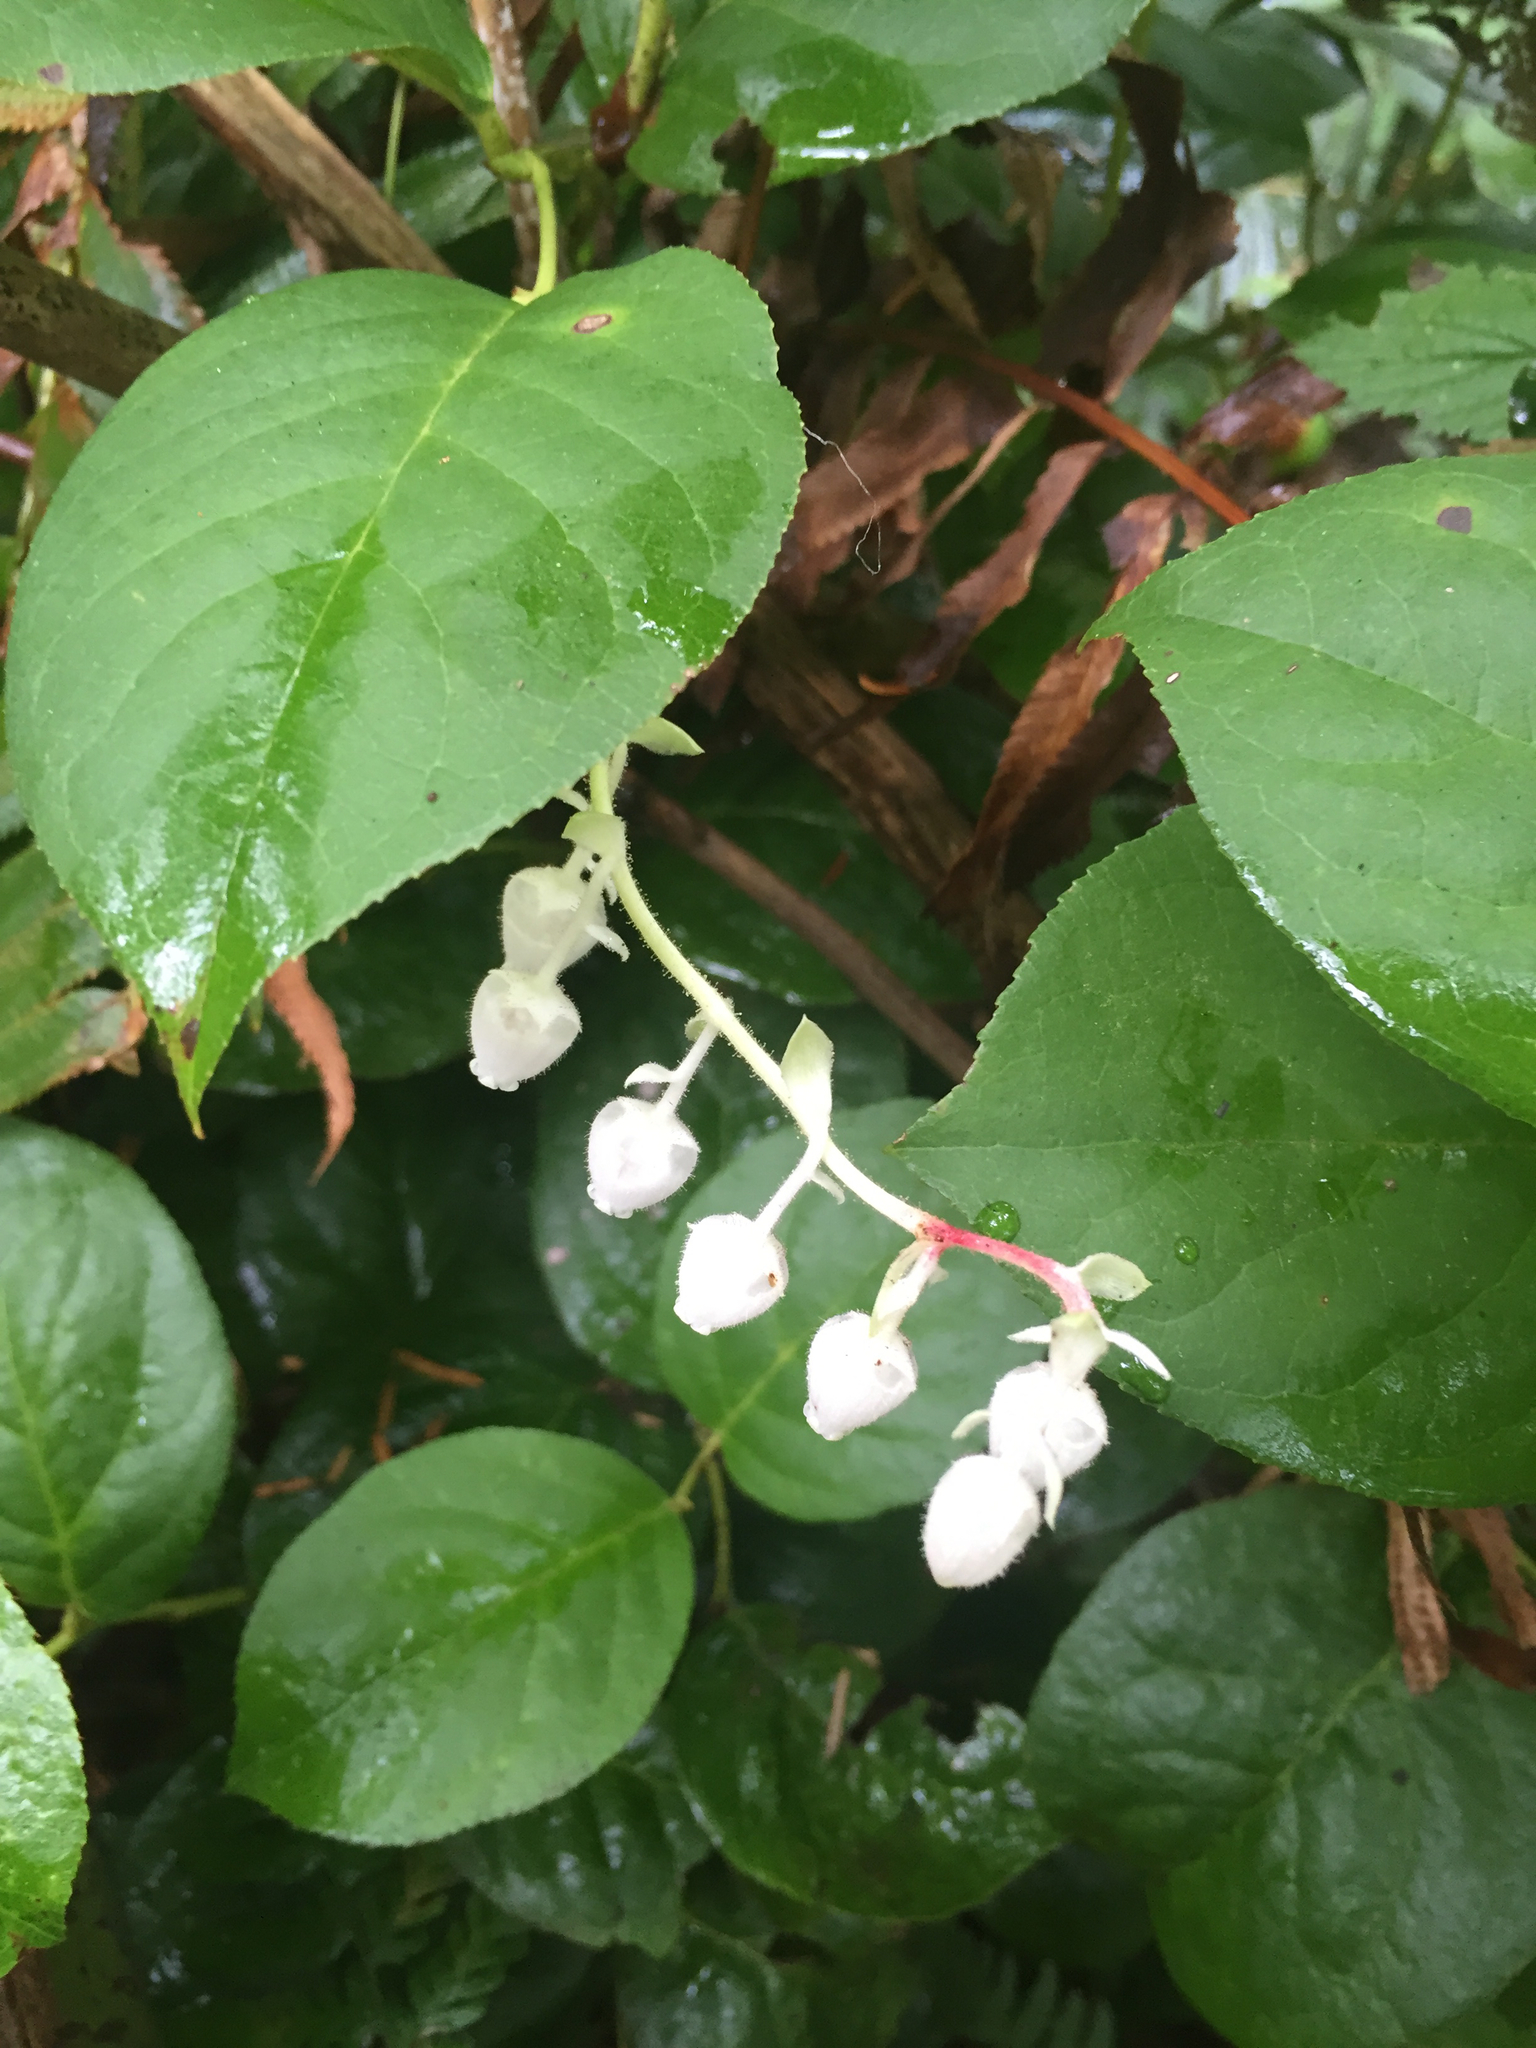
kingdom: Plantae
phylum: Tracheophyta
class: Magnoliopsida
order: Ericales
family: Ericaceae
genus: Gaultheria
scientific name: Gaultheria shallon
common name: Shallon
